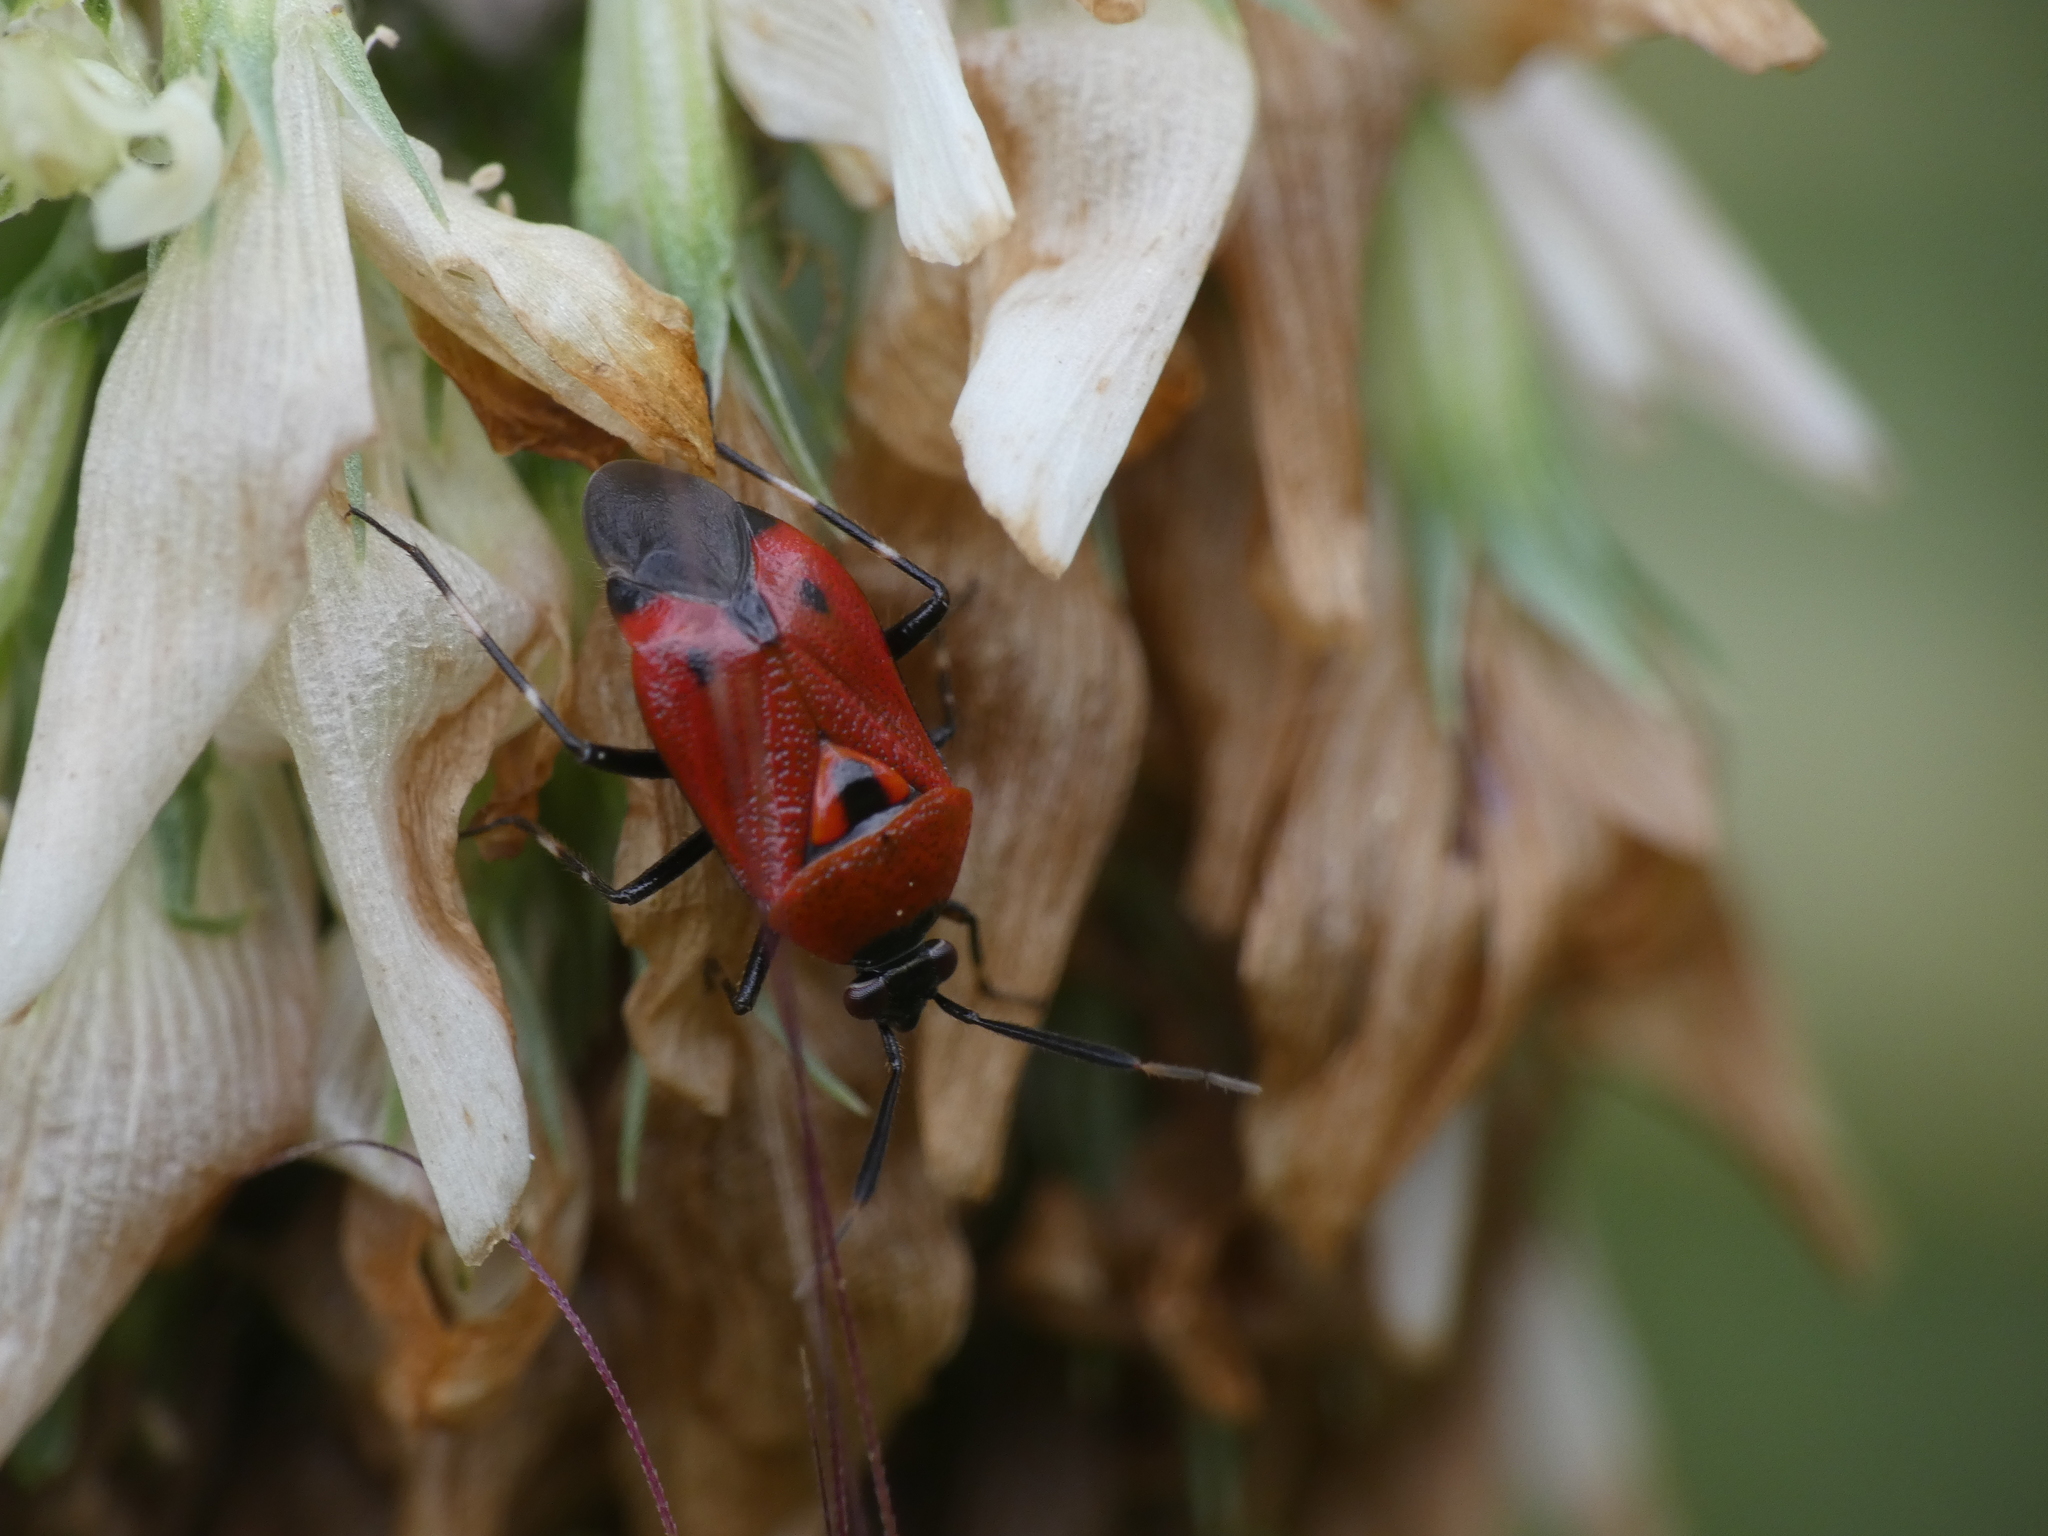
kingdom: Animalia
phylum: Arthropoda
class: Insecta
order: Hemiptera
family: Miridae
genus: Deraeocoris
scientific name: Deraeocoris punctum
